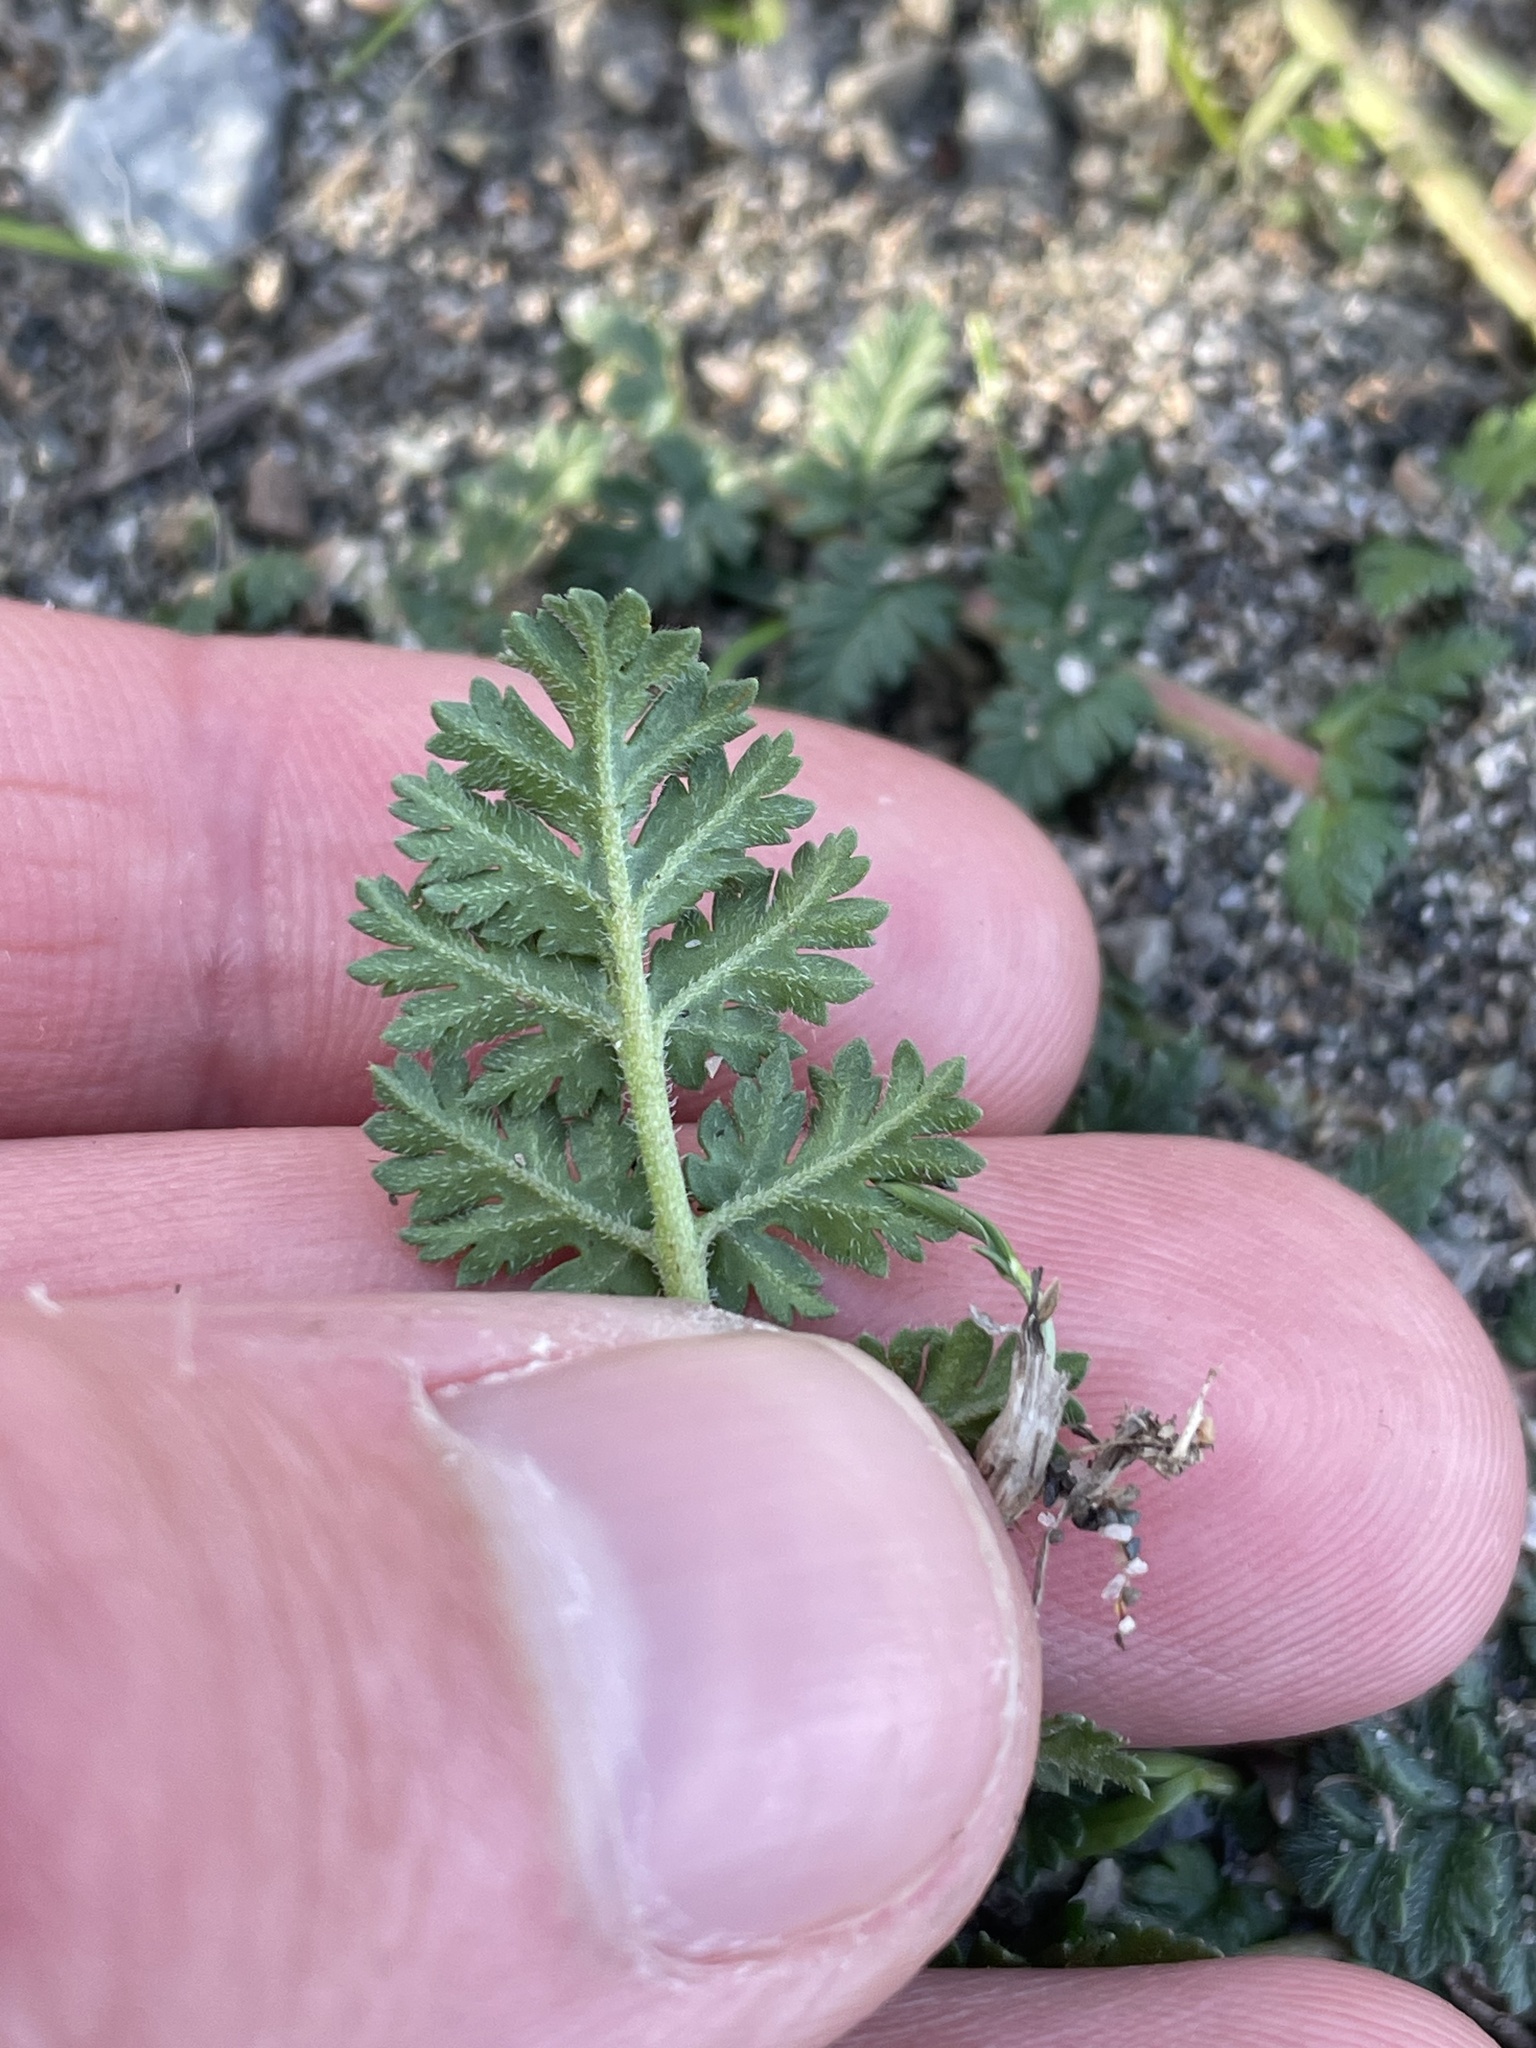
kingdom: Plantae
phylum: Tracheophyta
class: Magnoliopsida
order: Geraniales
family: Geraniaceae
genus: Erodium
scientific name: Erodium cicutarium
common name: Common stork's-bill
